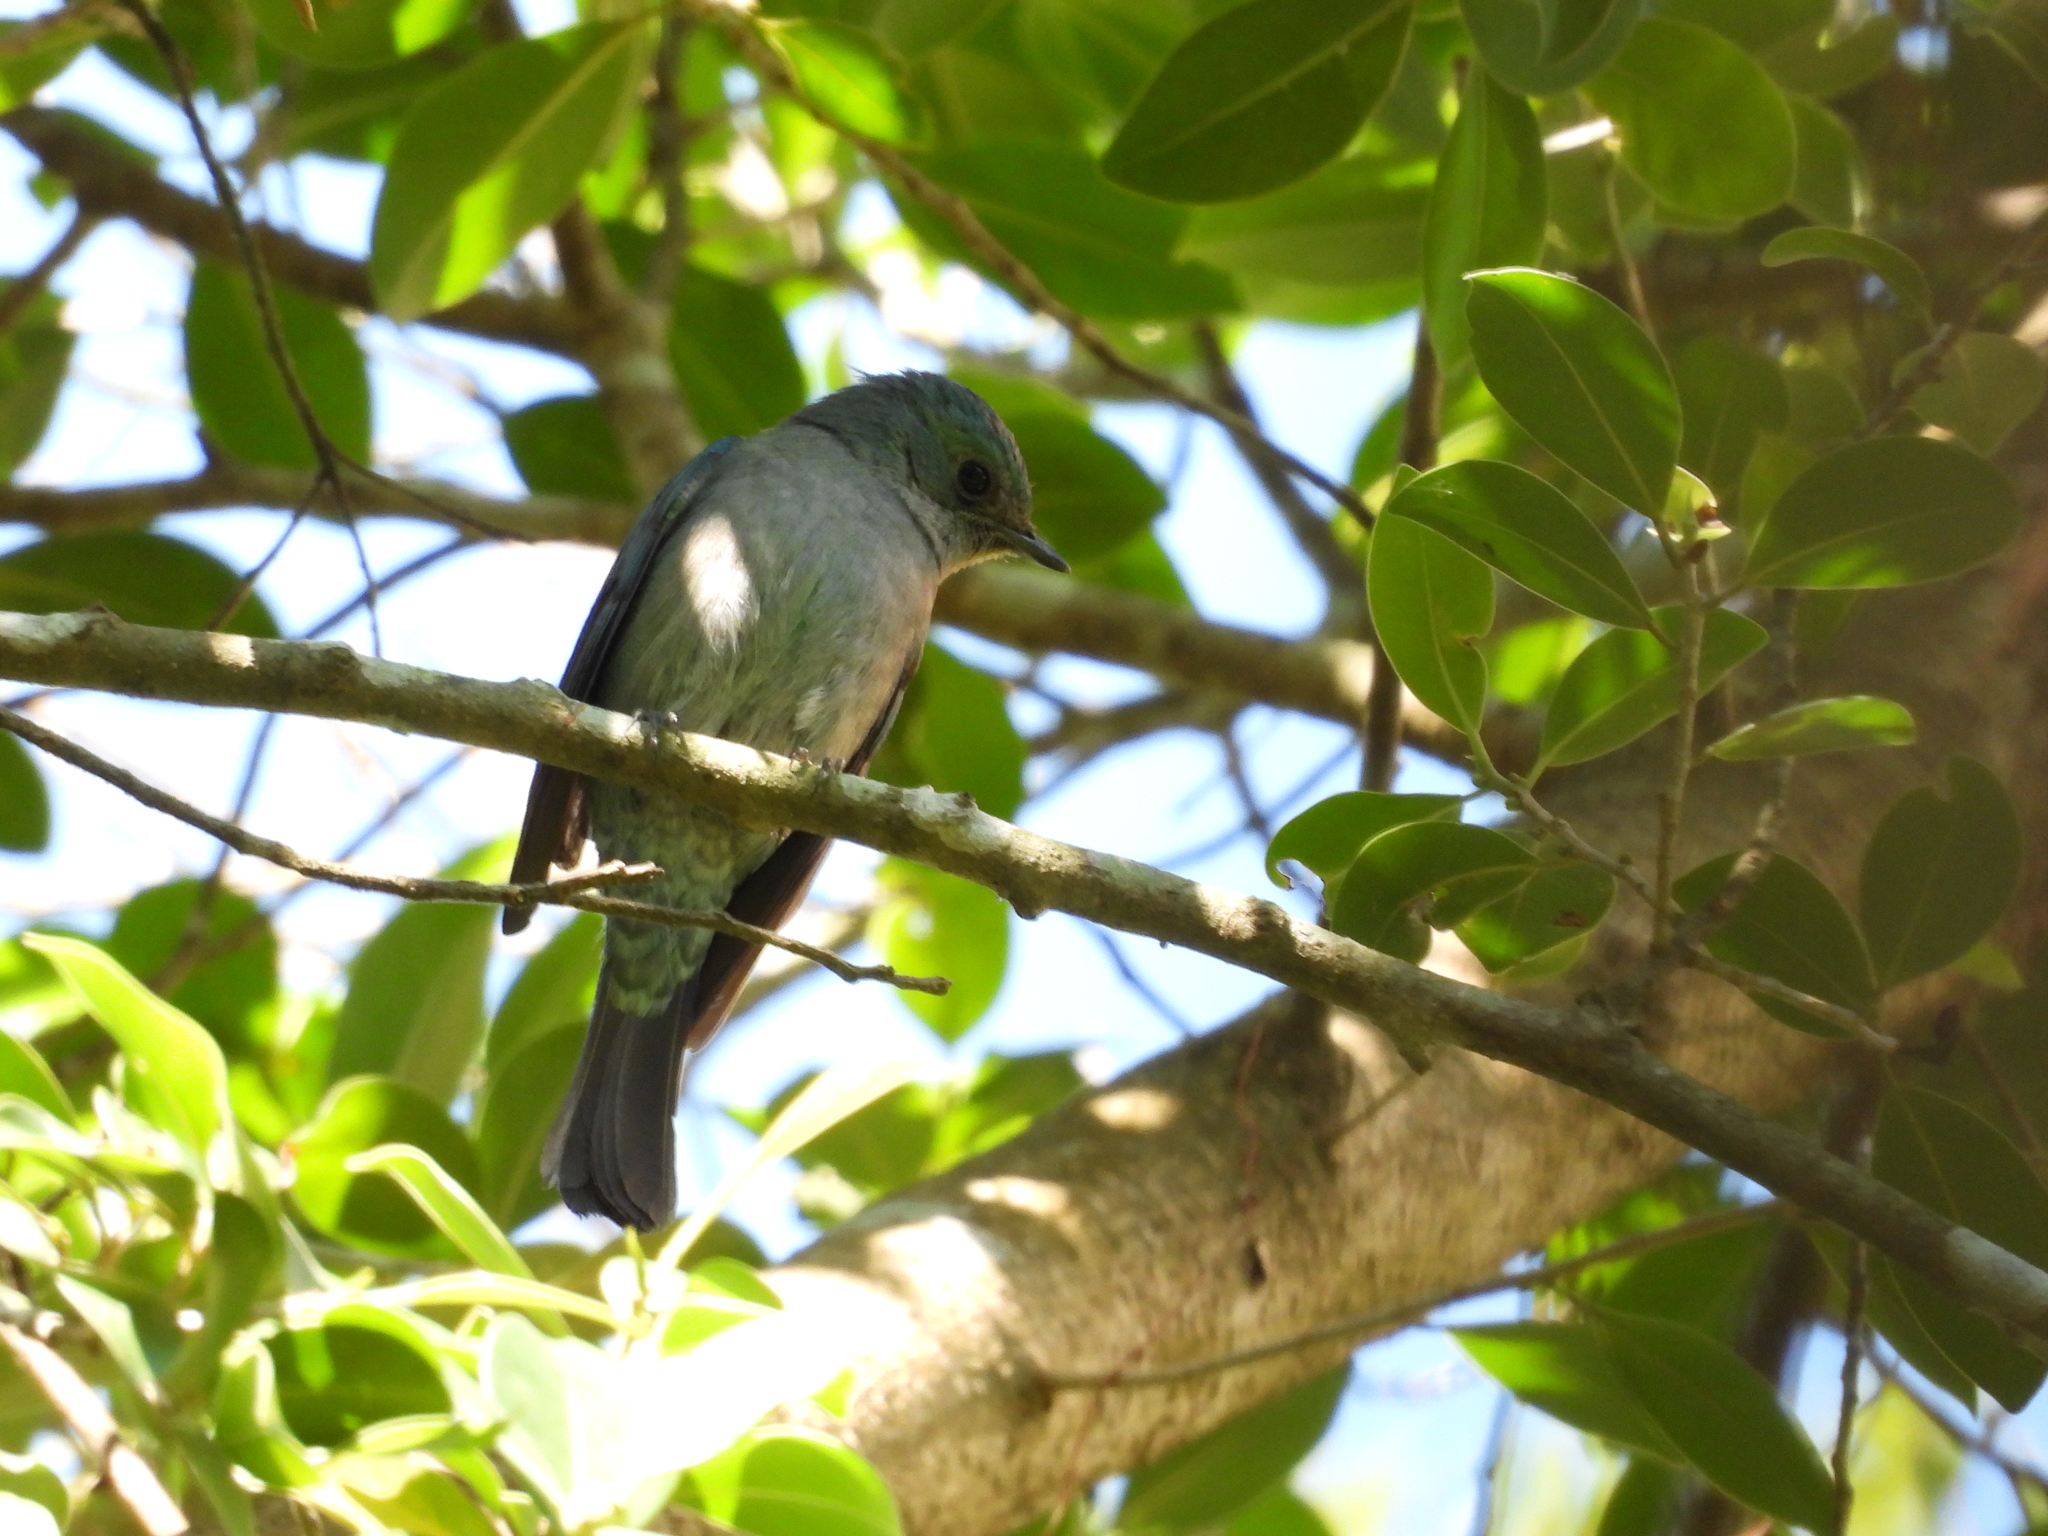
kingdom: Animalia
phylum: Chordata
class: Aves
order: Passeriformes
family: Muscicapidae
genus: Eumyias
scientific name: Eumyias thalassinus
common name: Verditer flycatcher
